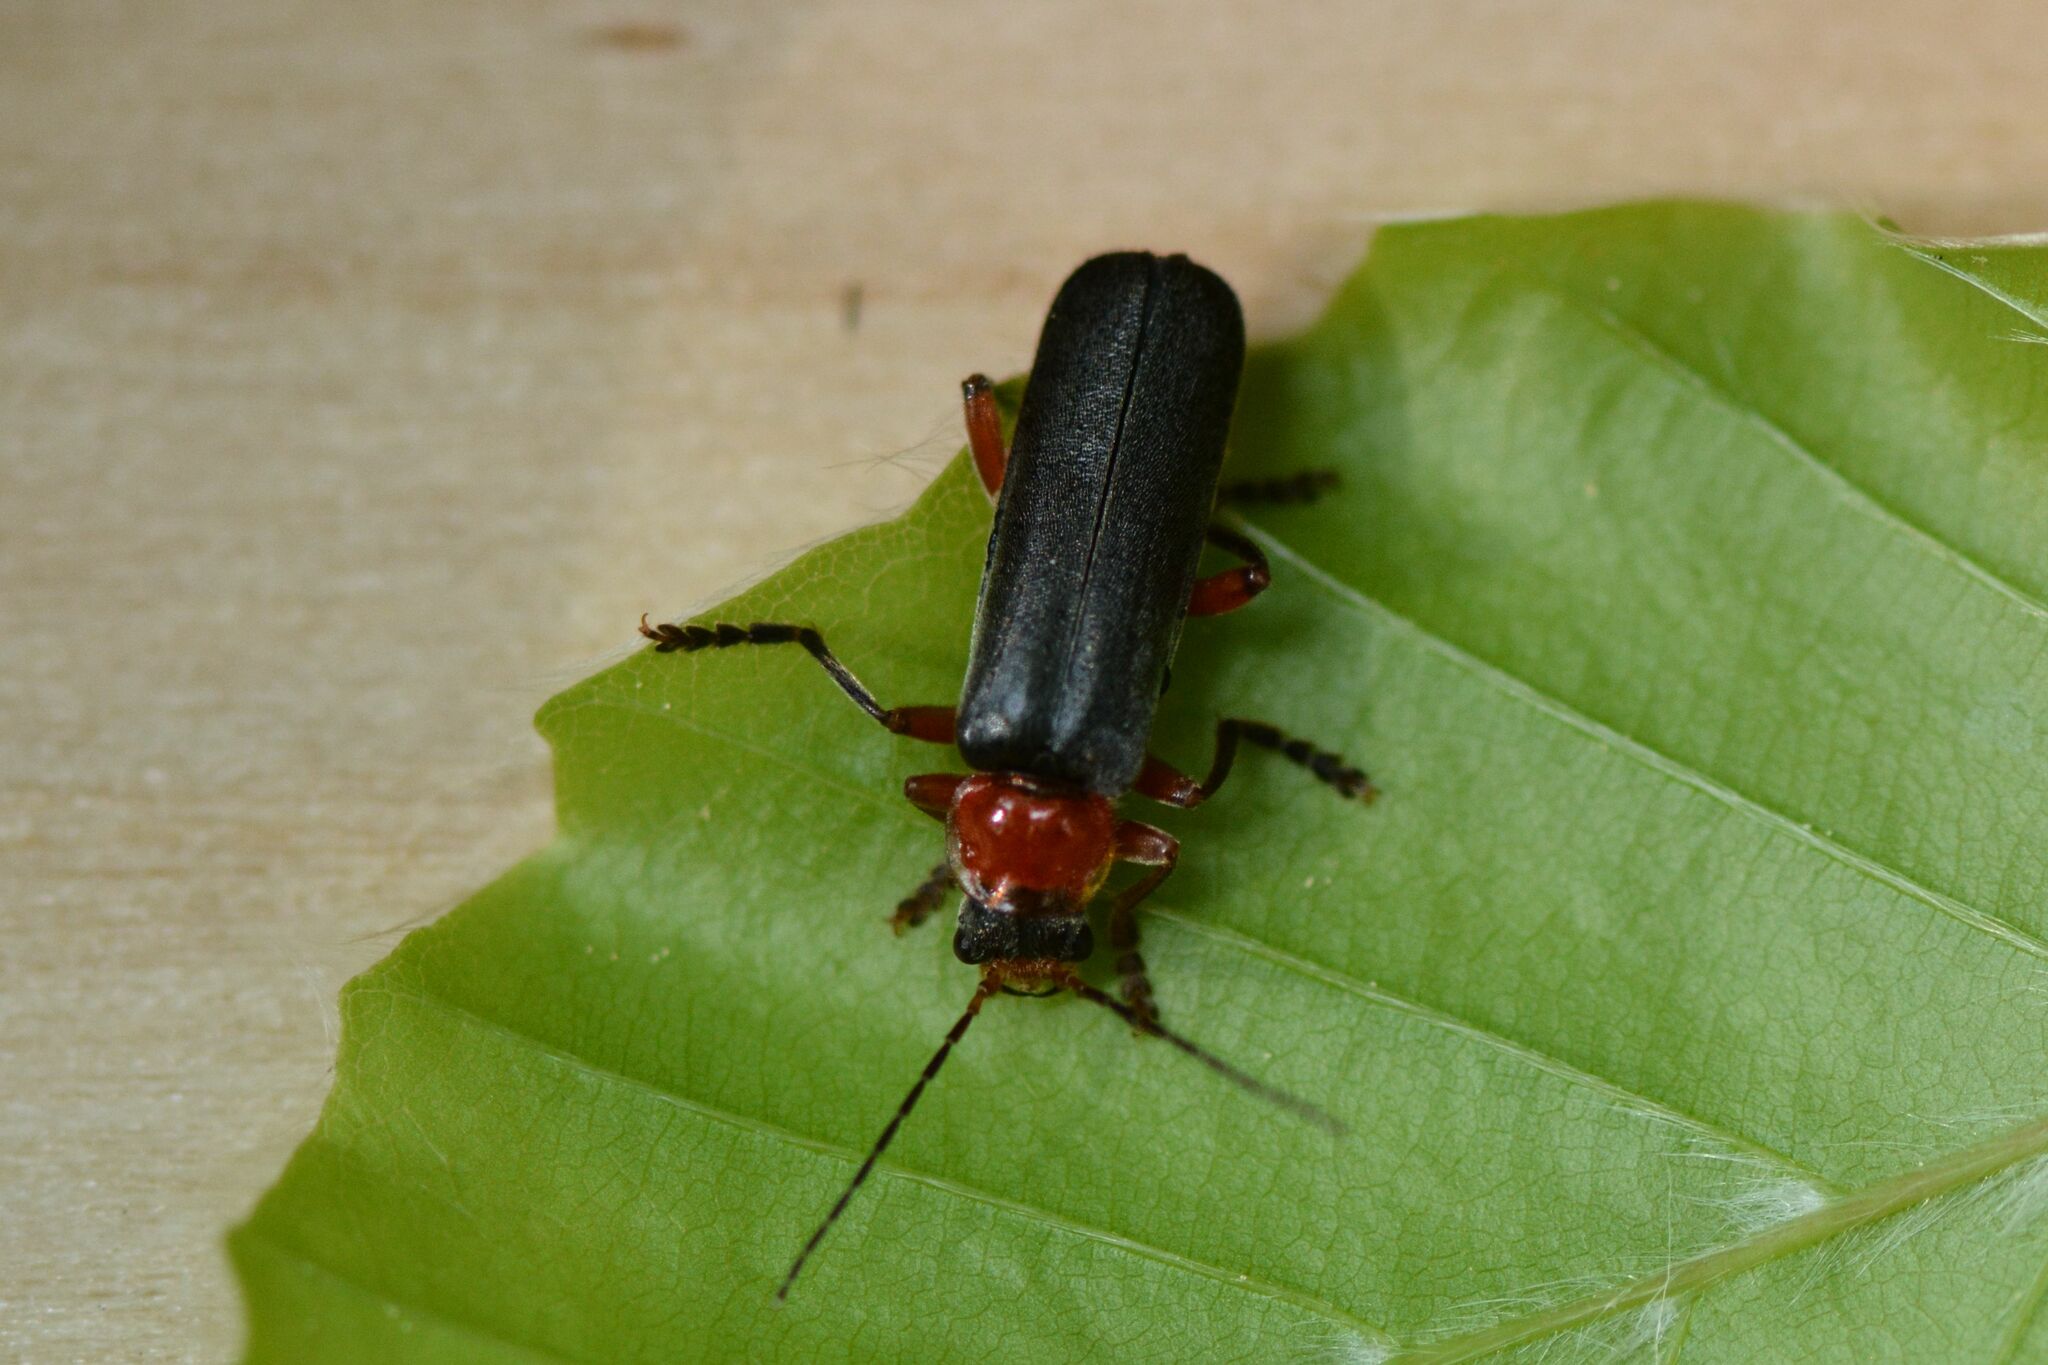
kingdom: Animalia
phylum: Arthropoda
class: Insecta
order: Coleoptera
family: Cantharidae
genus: Cantharis
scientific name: Cantharis pellucida
